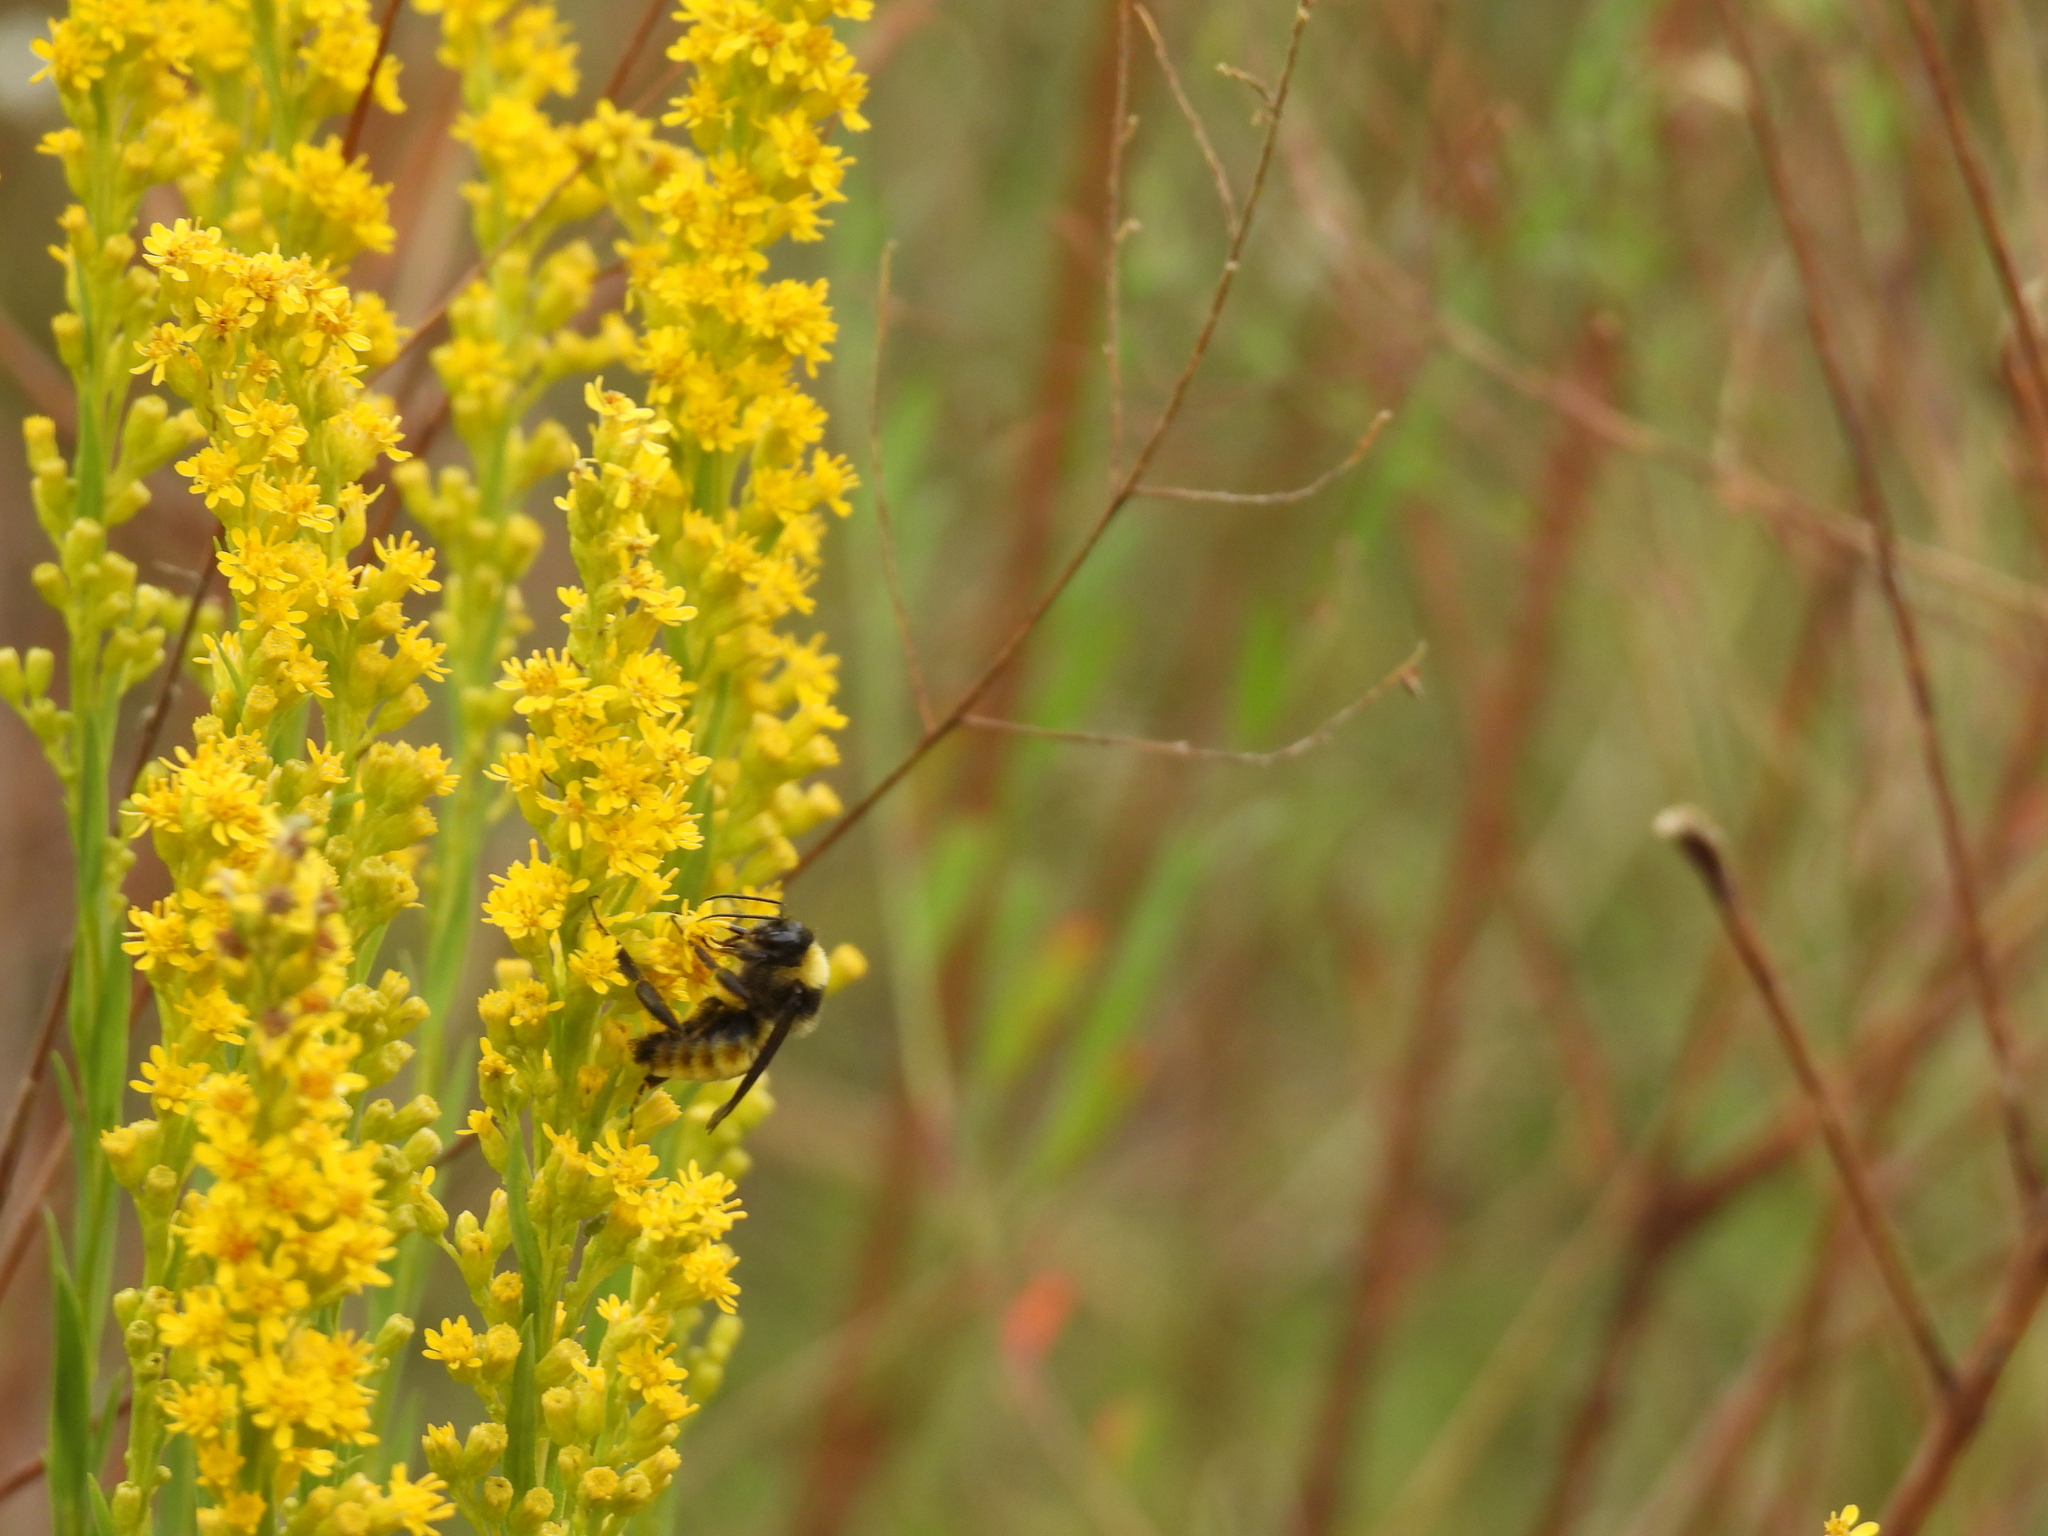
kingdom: Animalia
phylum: Arthropoda
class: Insecta
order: Hymenoptera
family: Apidae
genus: Bombus
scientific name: Bombus pensylvanicus
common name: Bumble bee
